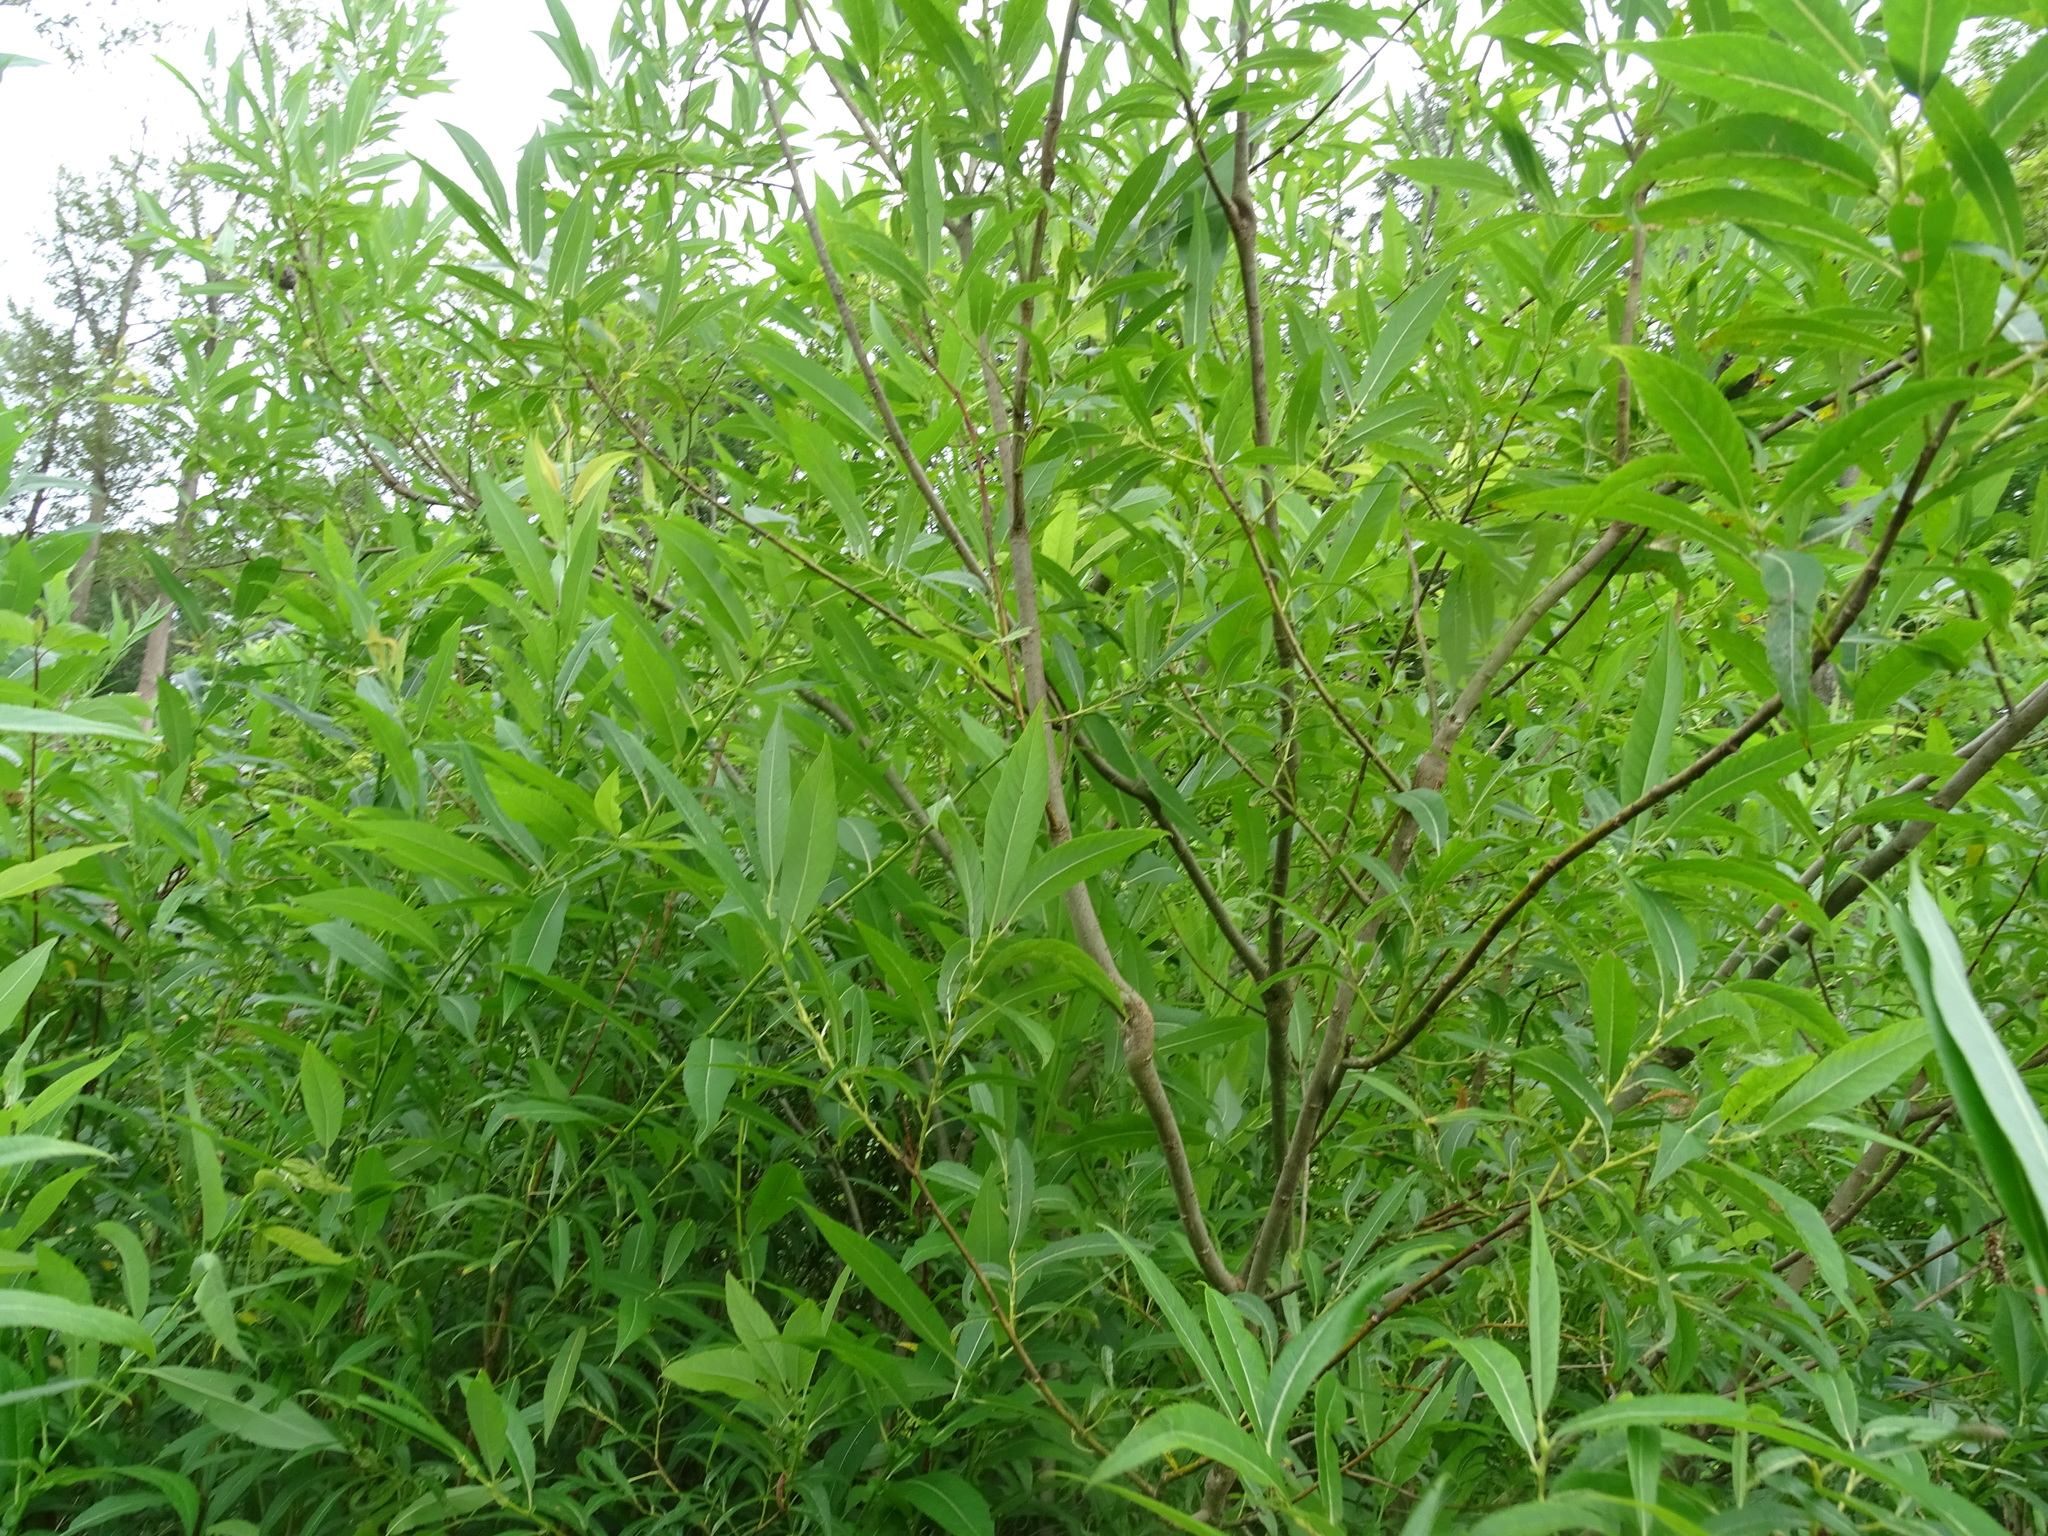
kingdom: Plantae
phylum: Tracheophyta
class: Magnoliopsida
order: Malpighiales
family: Salicaceae
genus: Salix
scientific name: Salix eriocephala
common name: Heart-leaved willow
